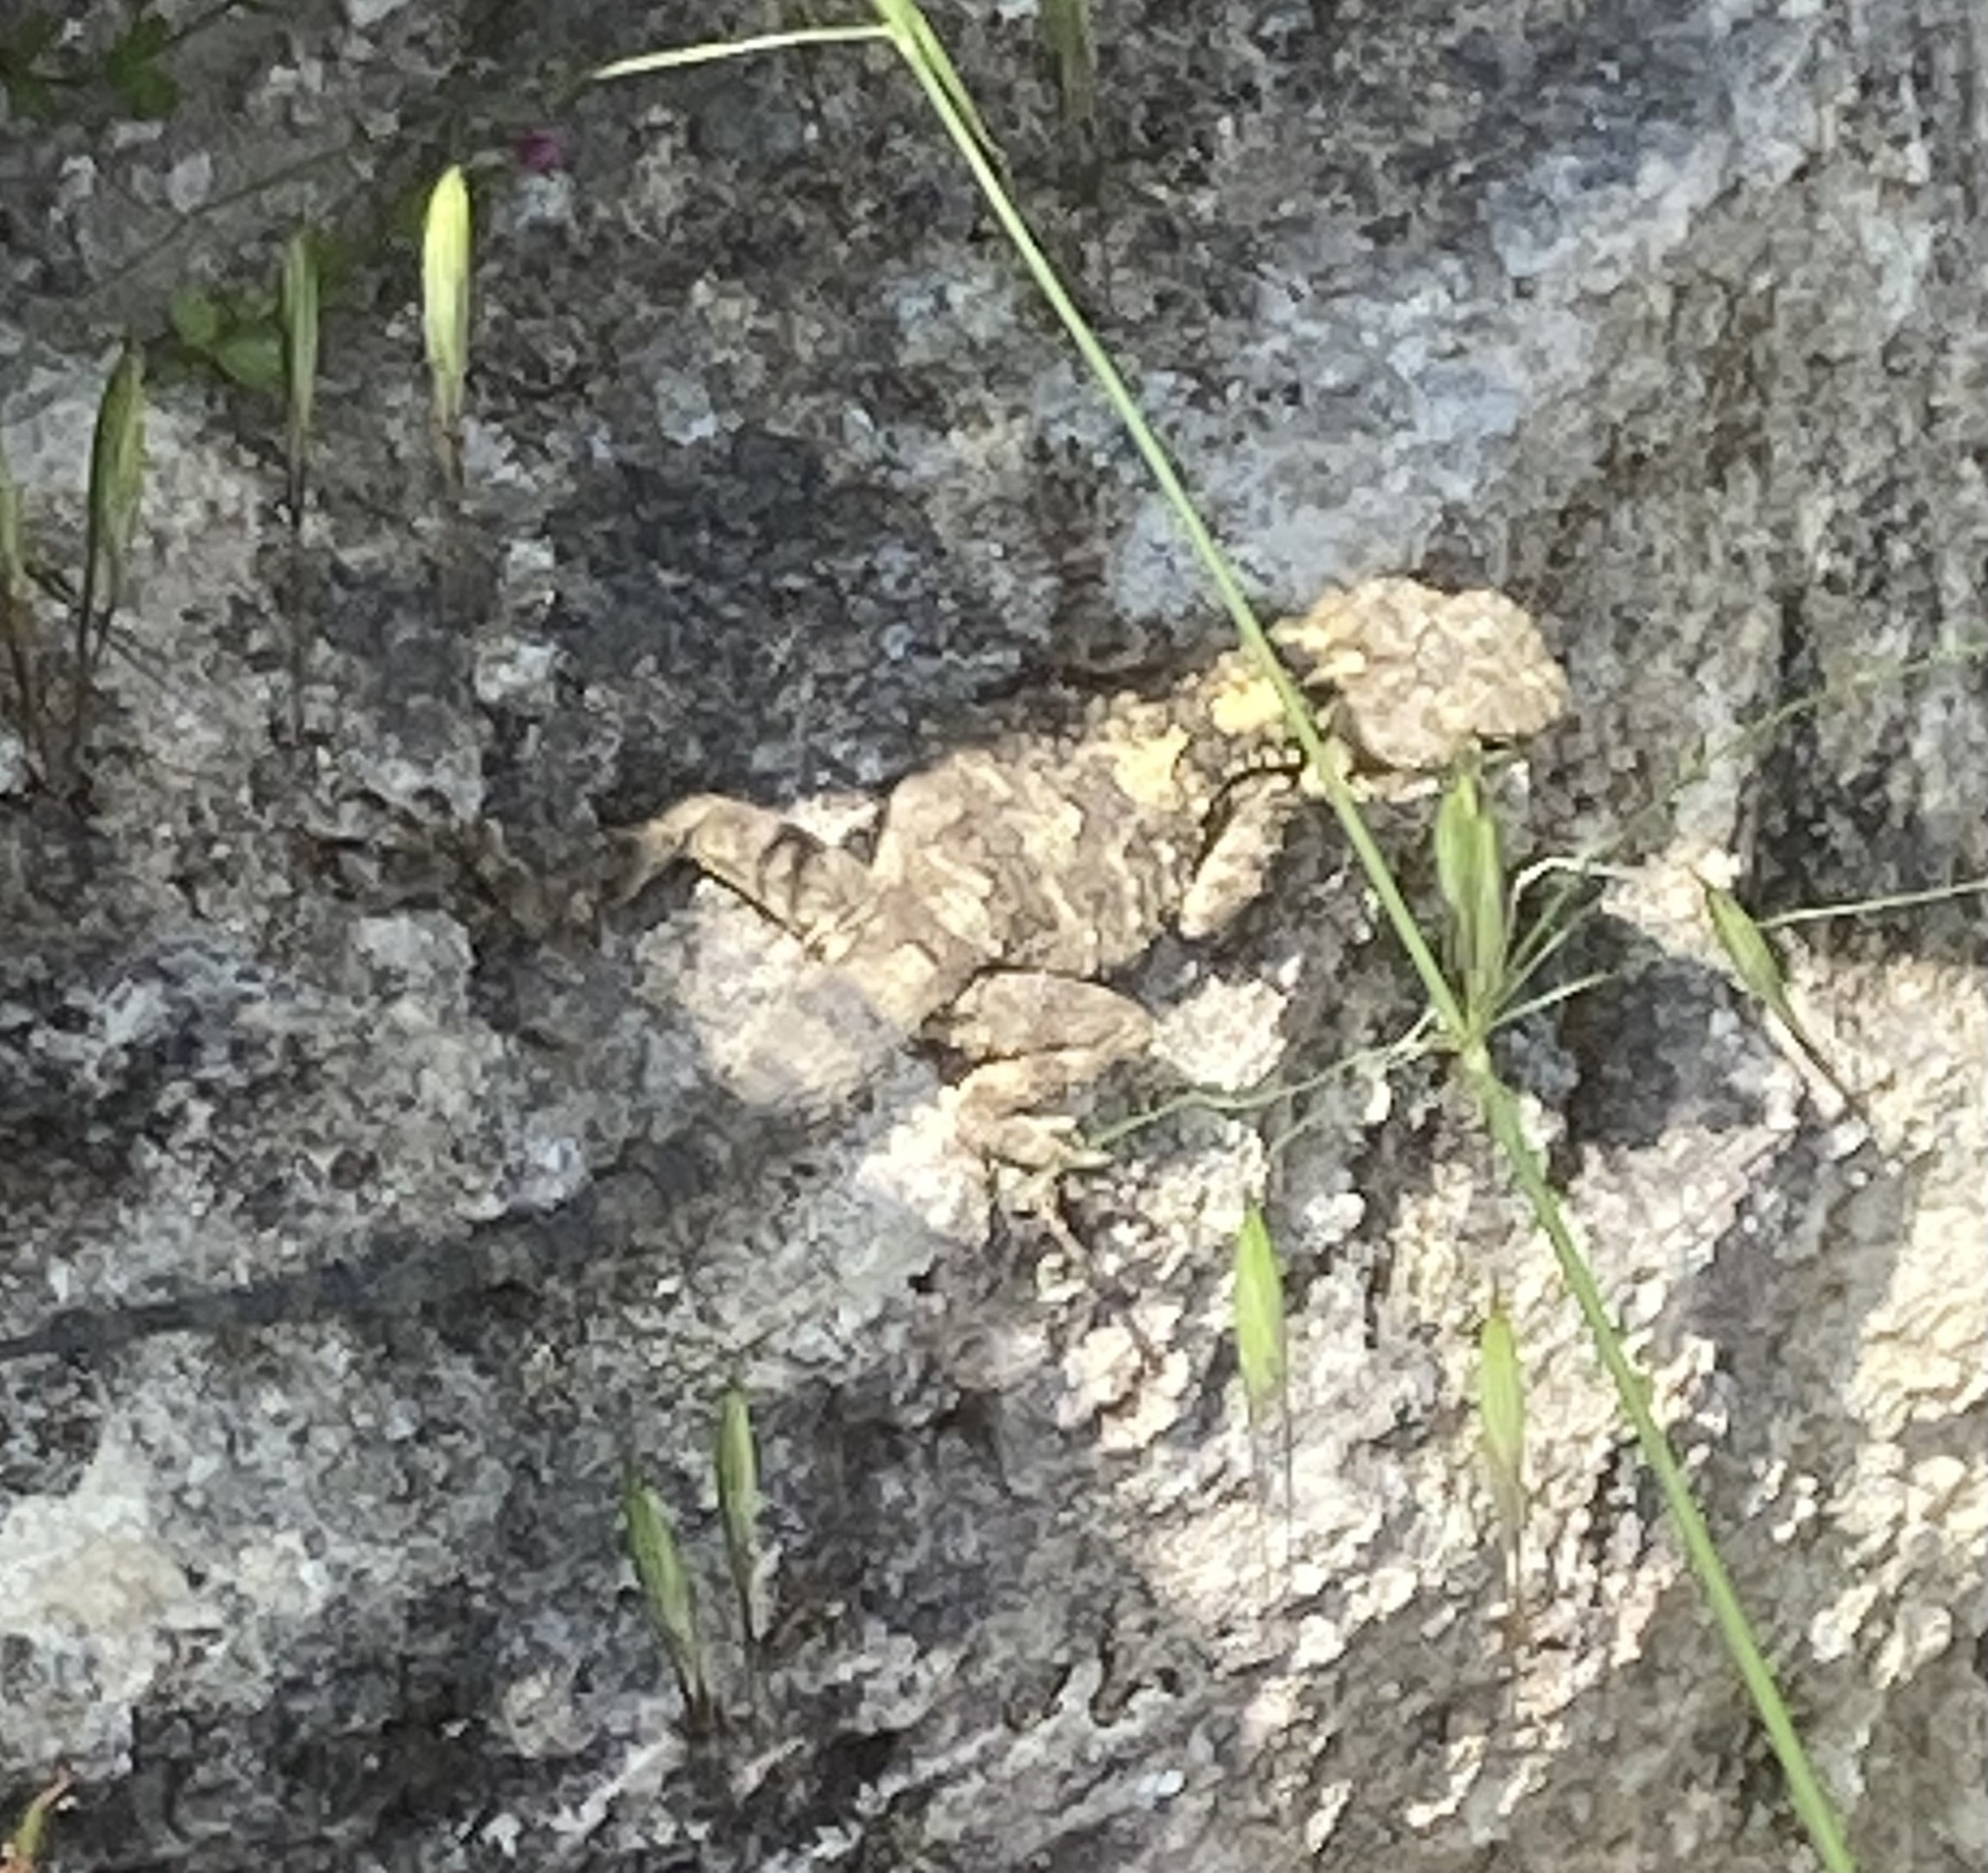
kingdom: Animalia
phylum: Chordata
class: Squamata
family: Agamidae
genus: Stellagama
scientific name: Stellagama stellio
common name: Starred agama
